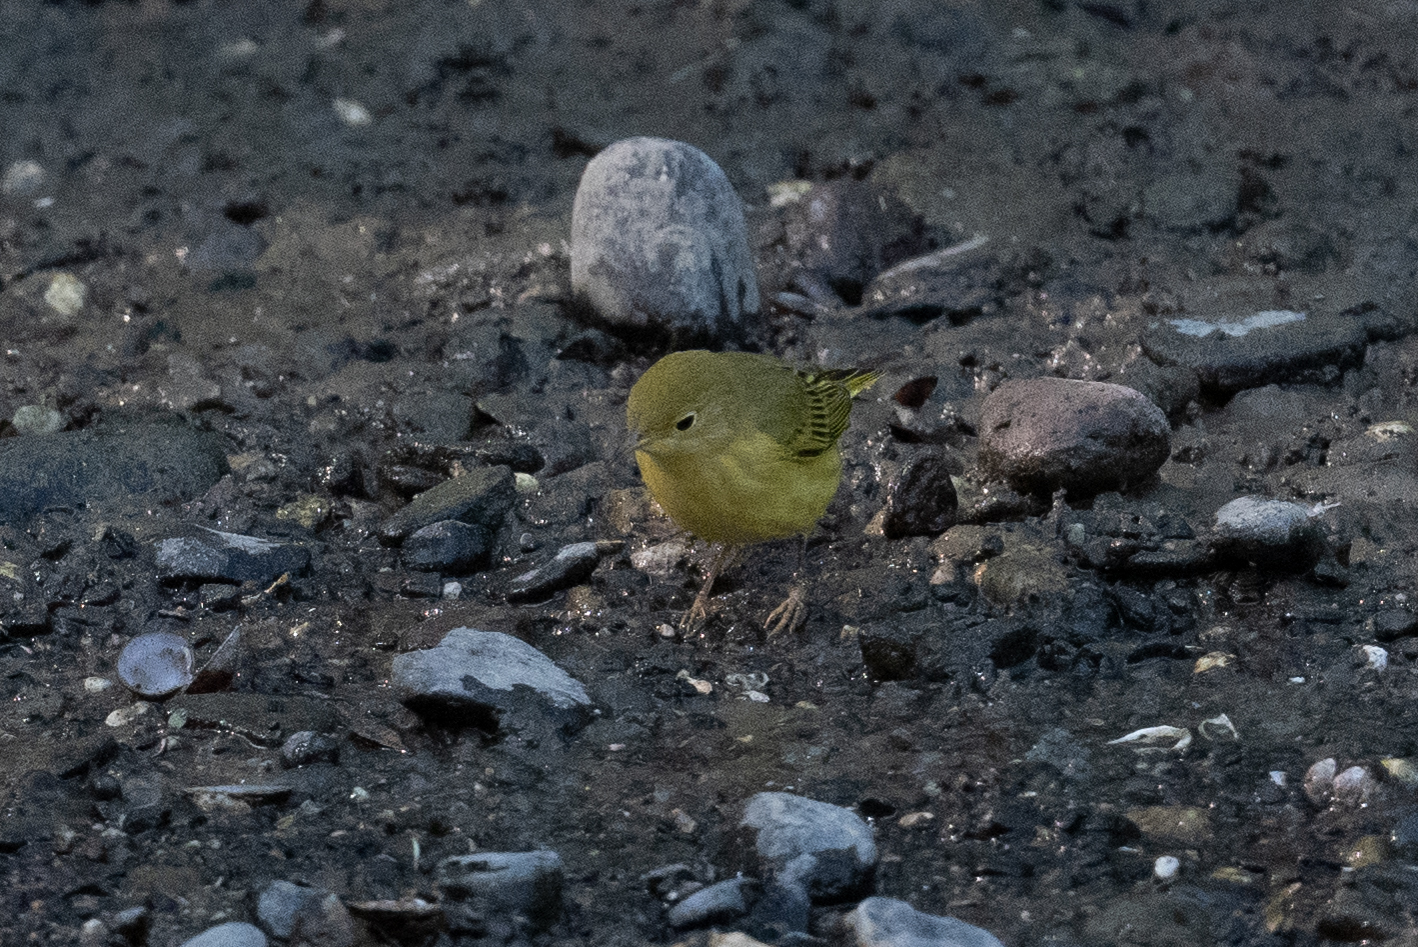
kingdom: Animalia
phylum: Chordata
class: Aves
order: Passeriformes
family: Parulidae
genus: Setophaga
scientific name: Setophaga petechia
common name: Yellow warbler
